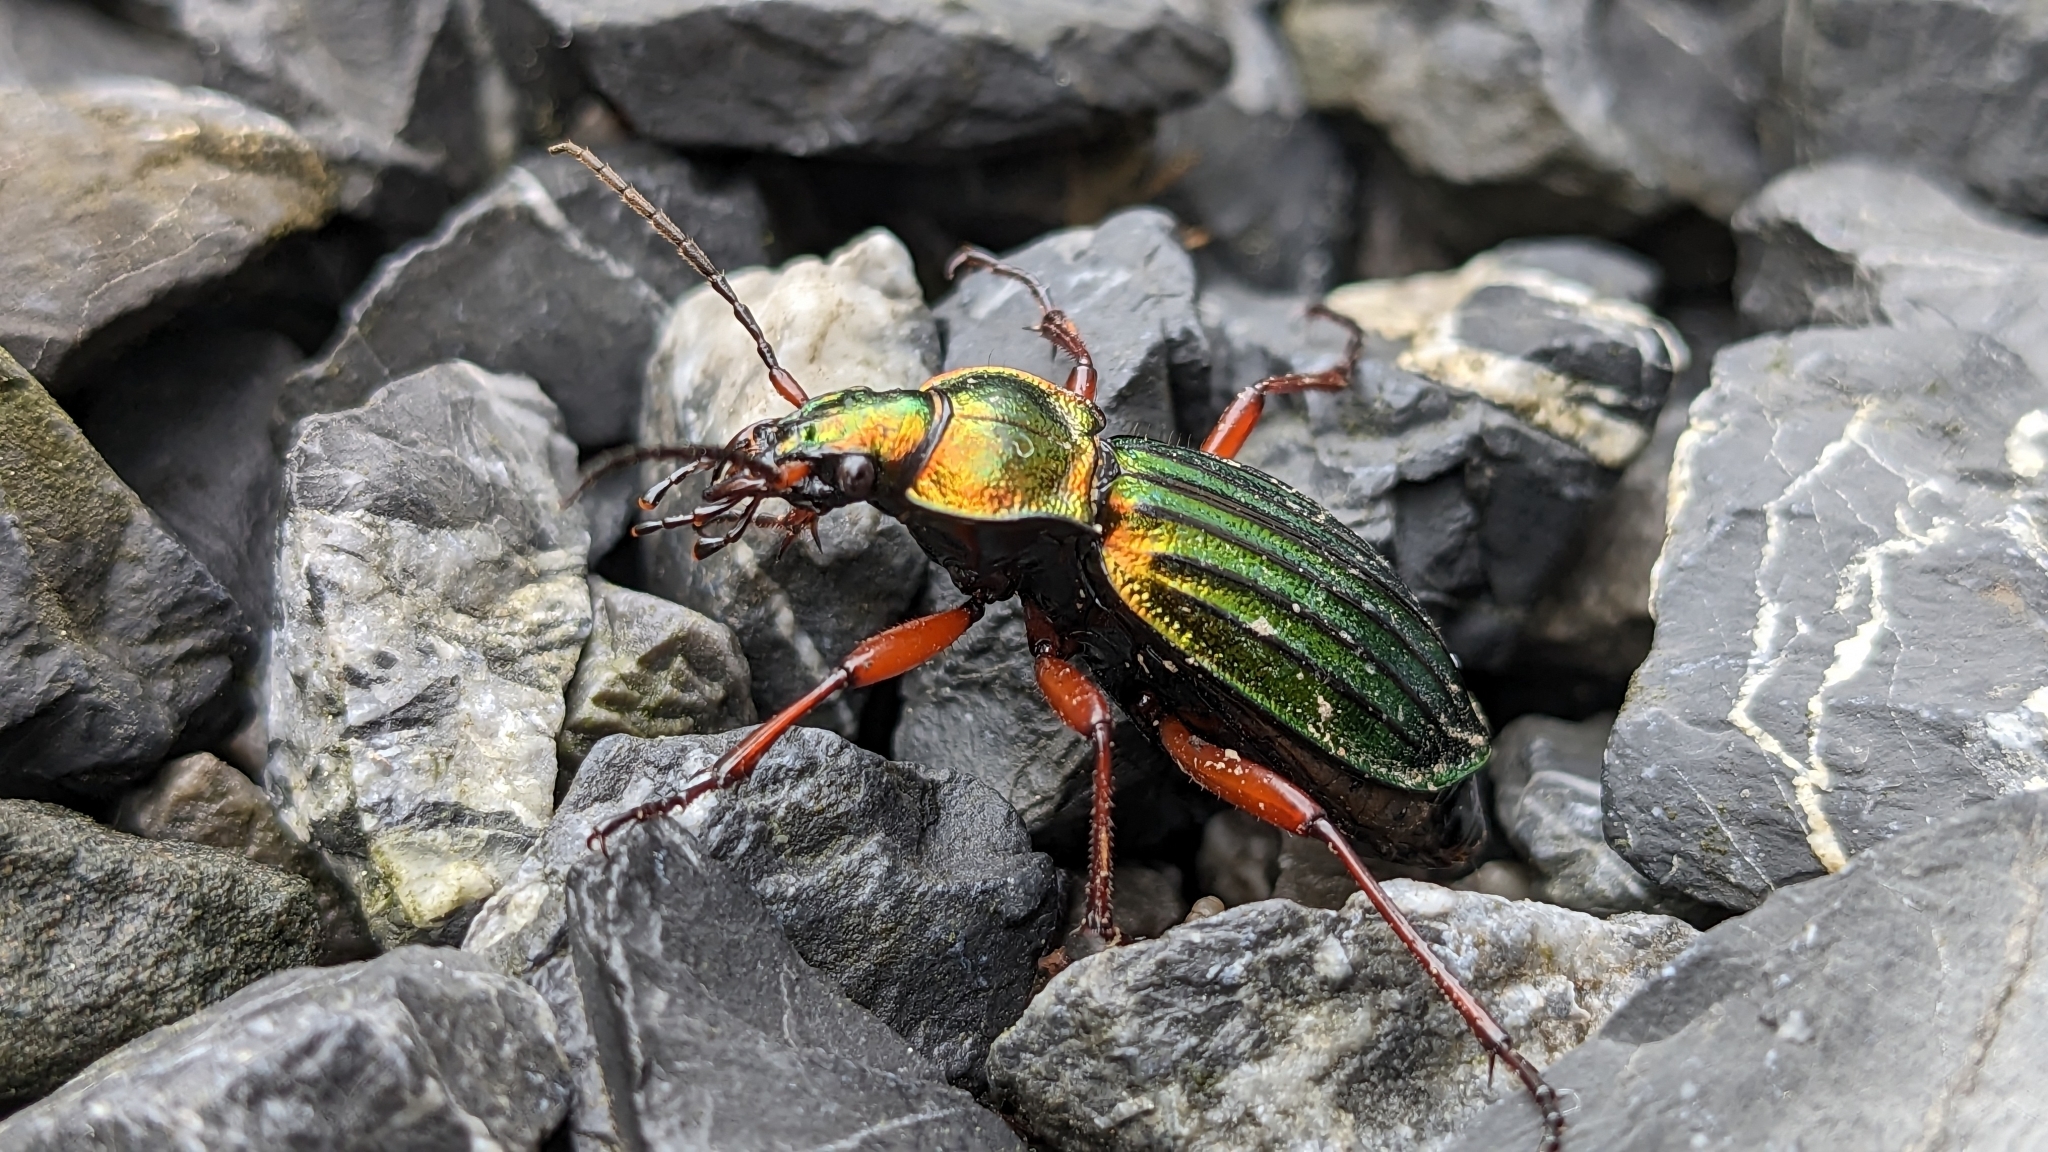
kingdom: Animalia
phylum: Arthropoda
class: Insecta
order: Coleoptera
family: Carabidae
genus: Carabus
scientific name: Carabus auronitens
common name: Carabus auronitens
